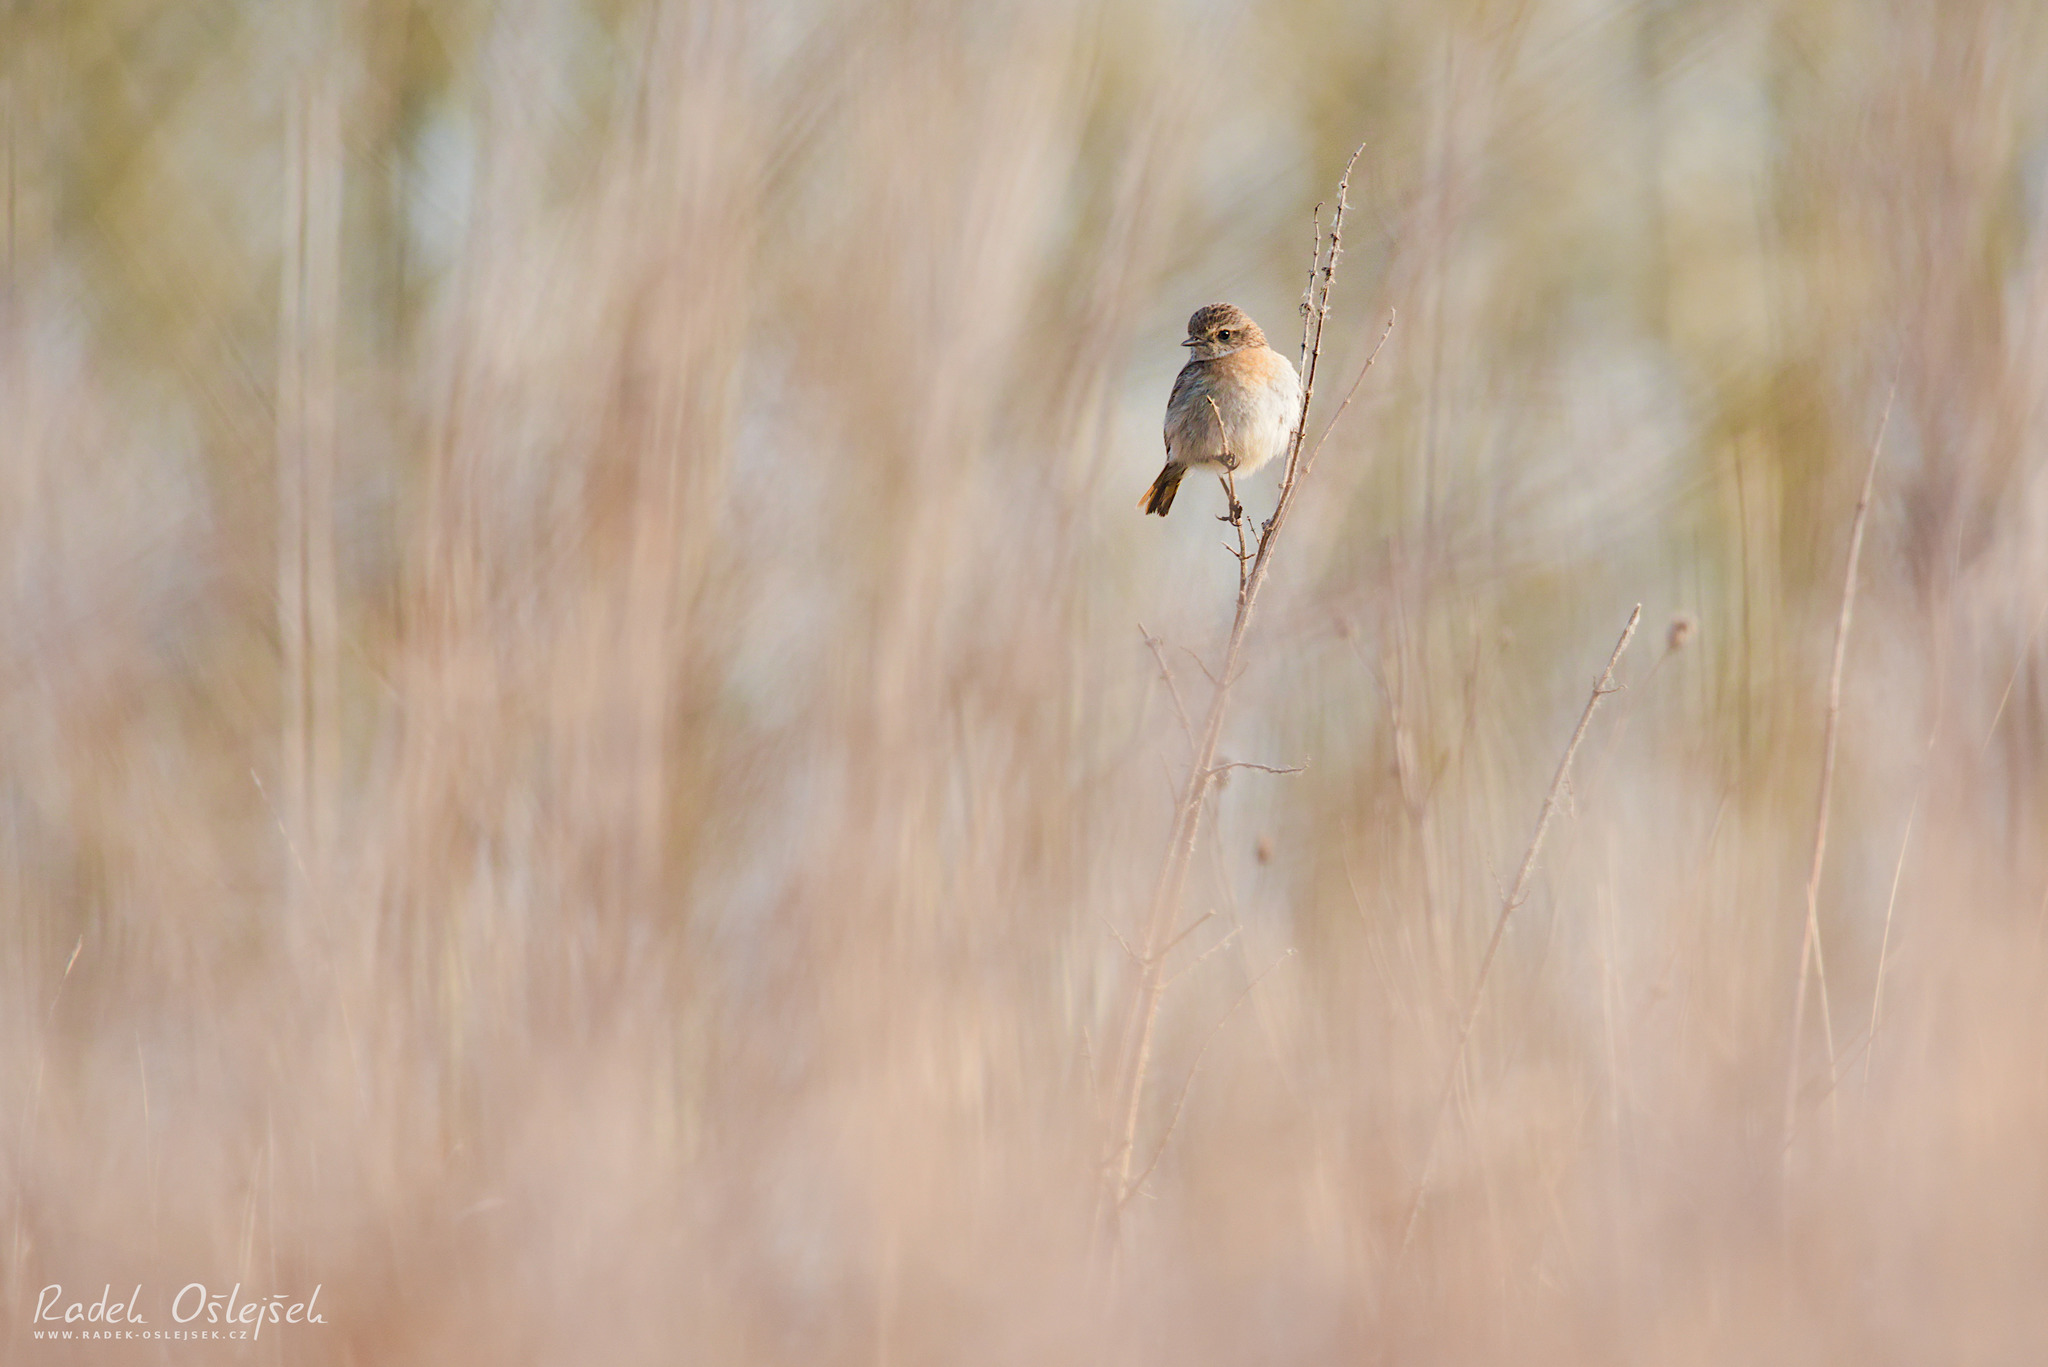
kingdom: Animalia
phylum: Chordata
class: Aves
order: Passeriformes
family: Muscicapidae
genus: Saxicola
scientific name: Saxicola rubicola
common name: European stonechat
